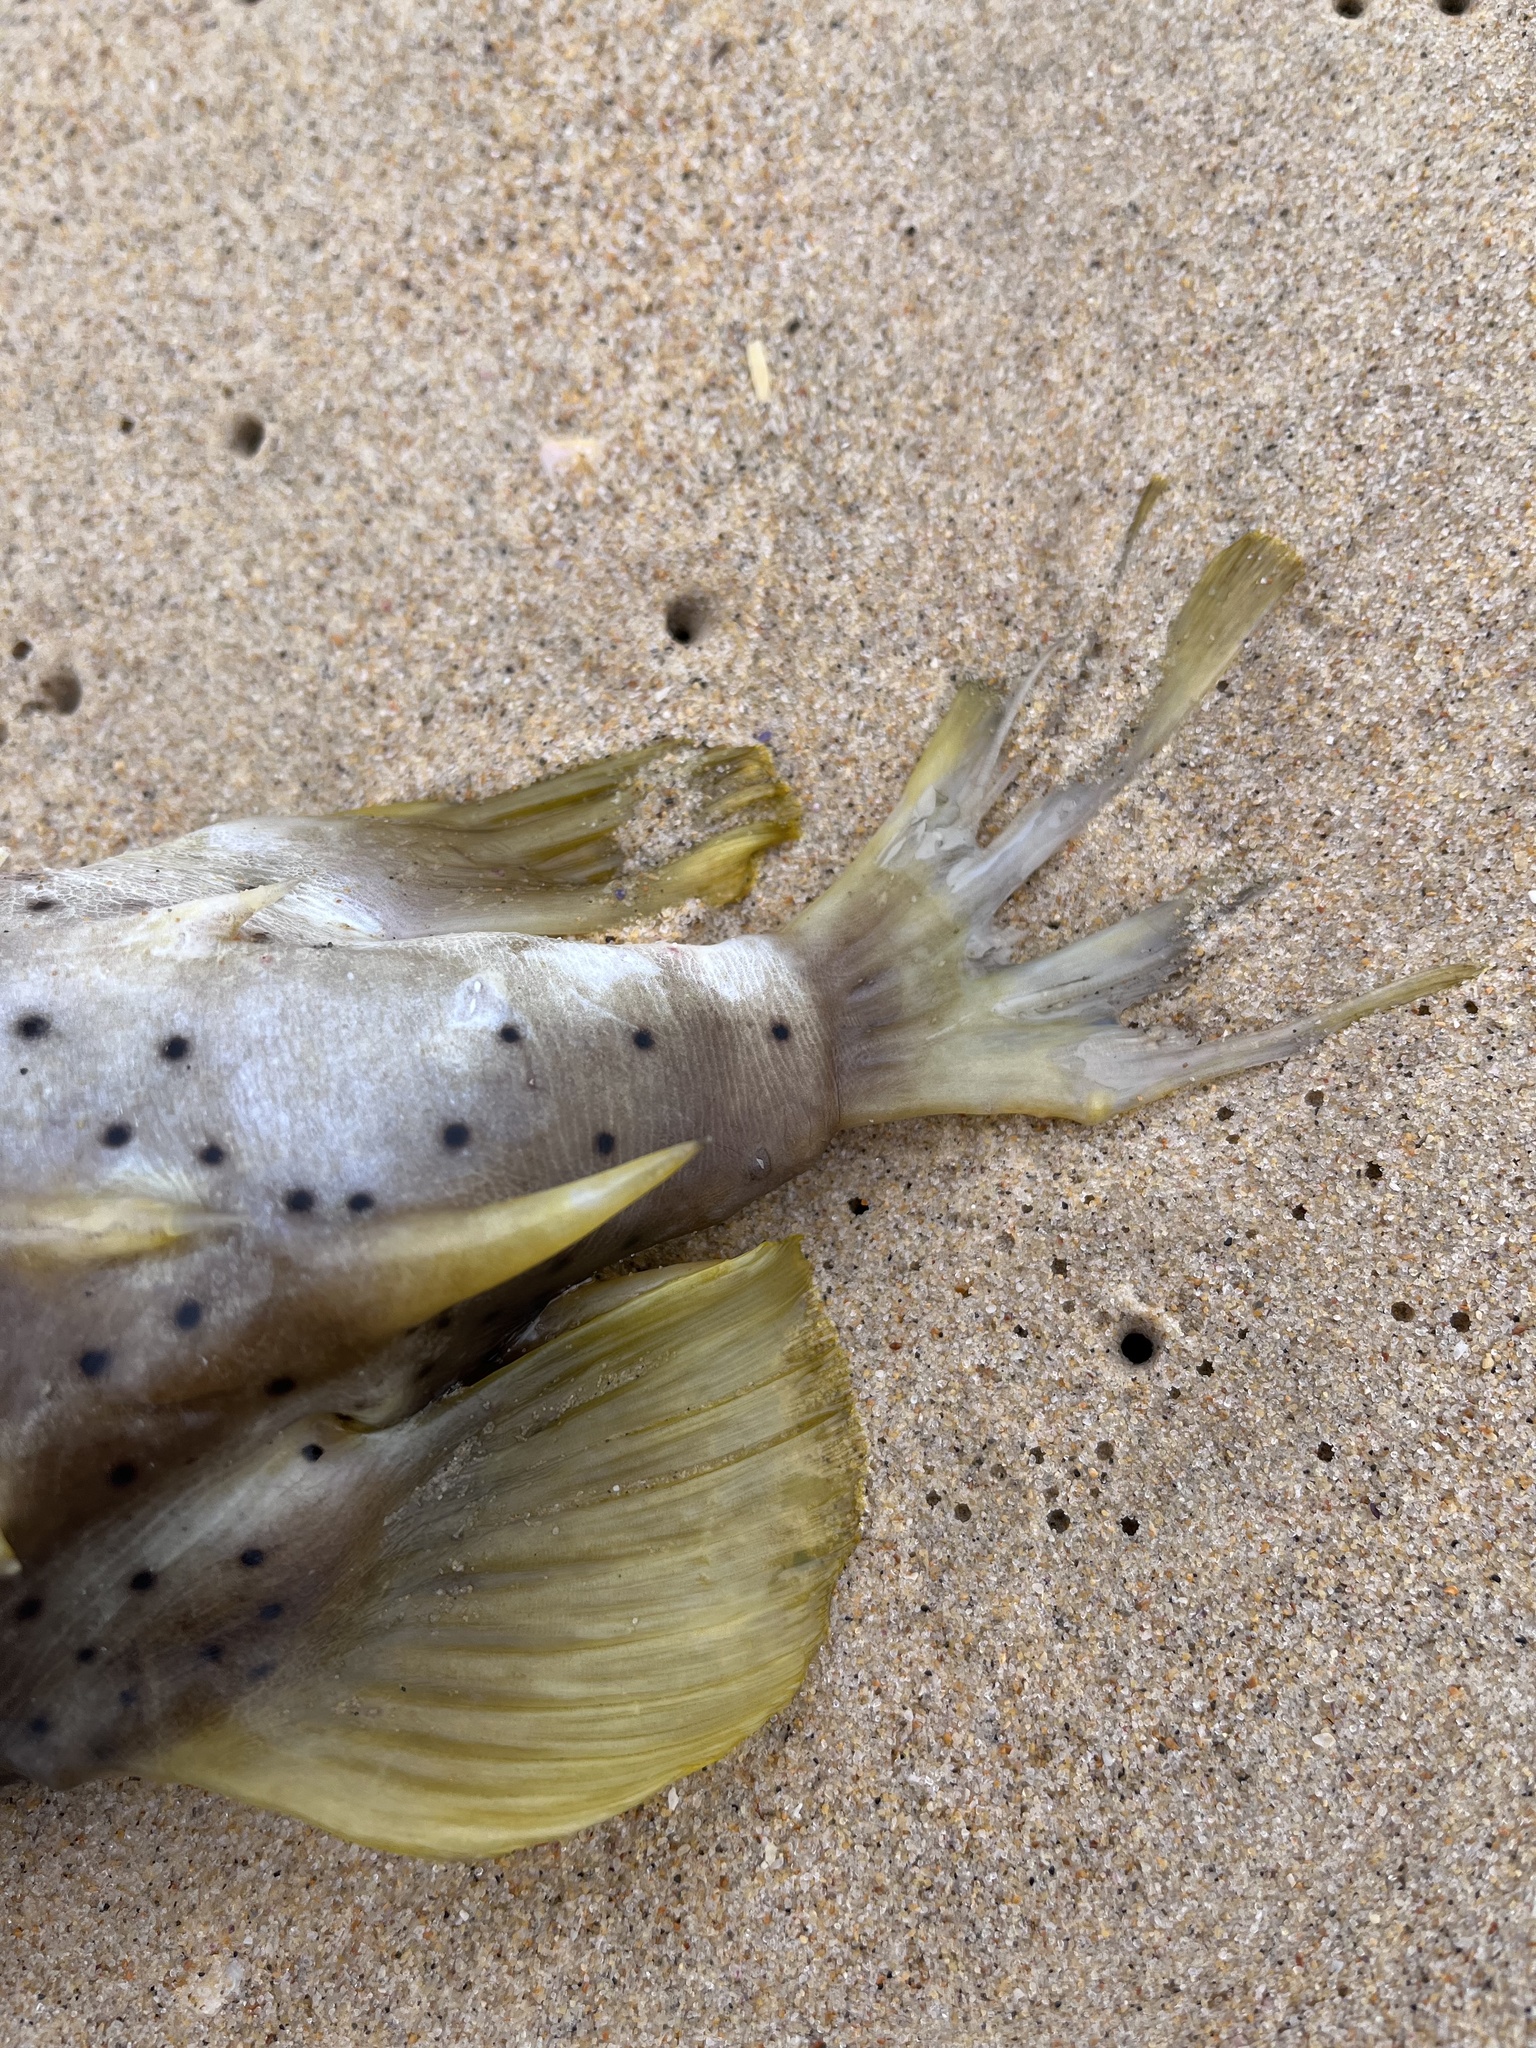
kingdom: Animalia
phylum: Chordata
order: Tetraodontiformes
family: Diodontidae
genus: Dicotylichthys
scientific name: Dicotylichthys punctulatus
